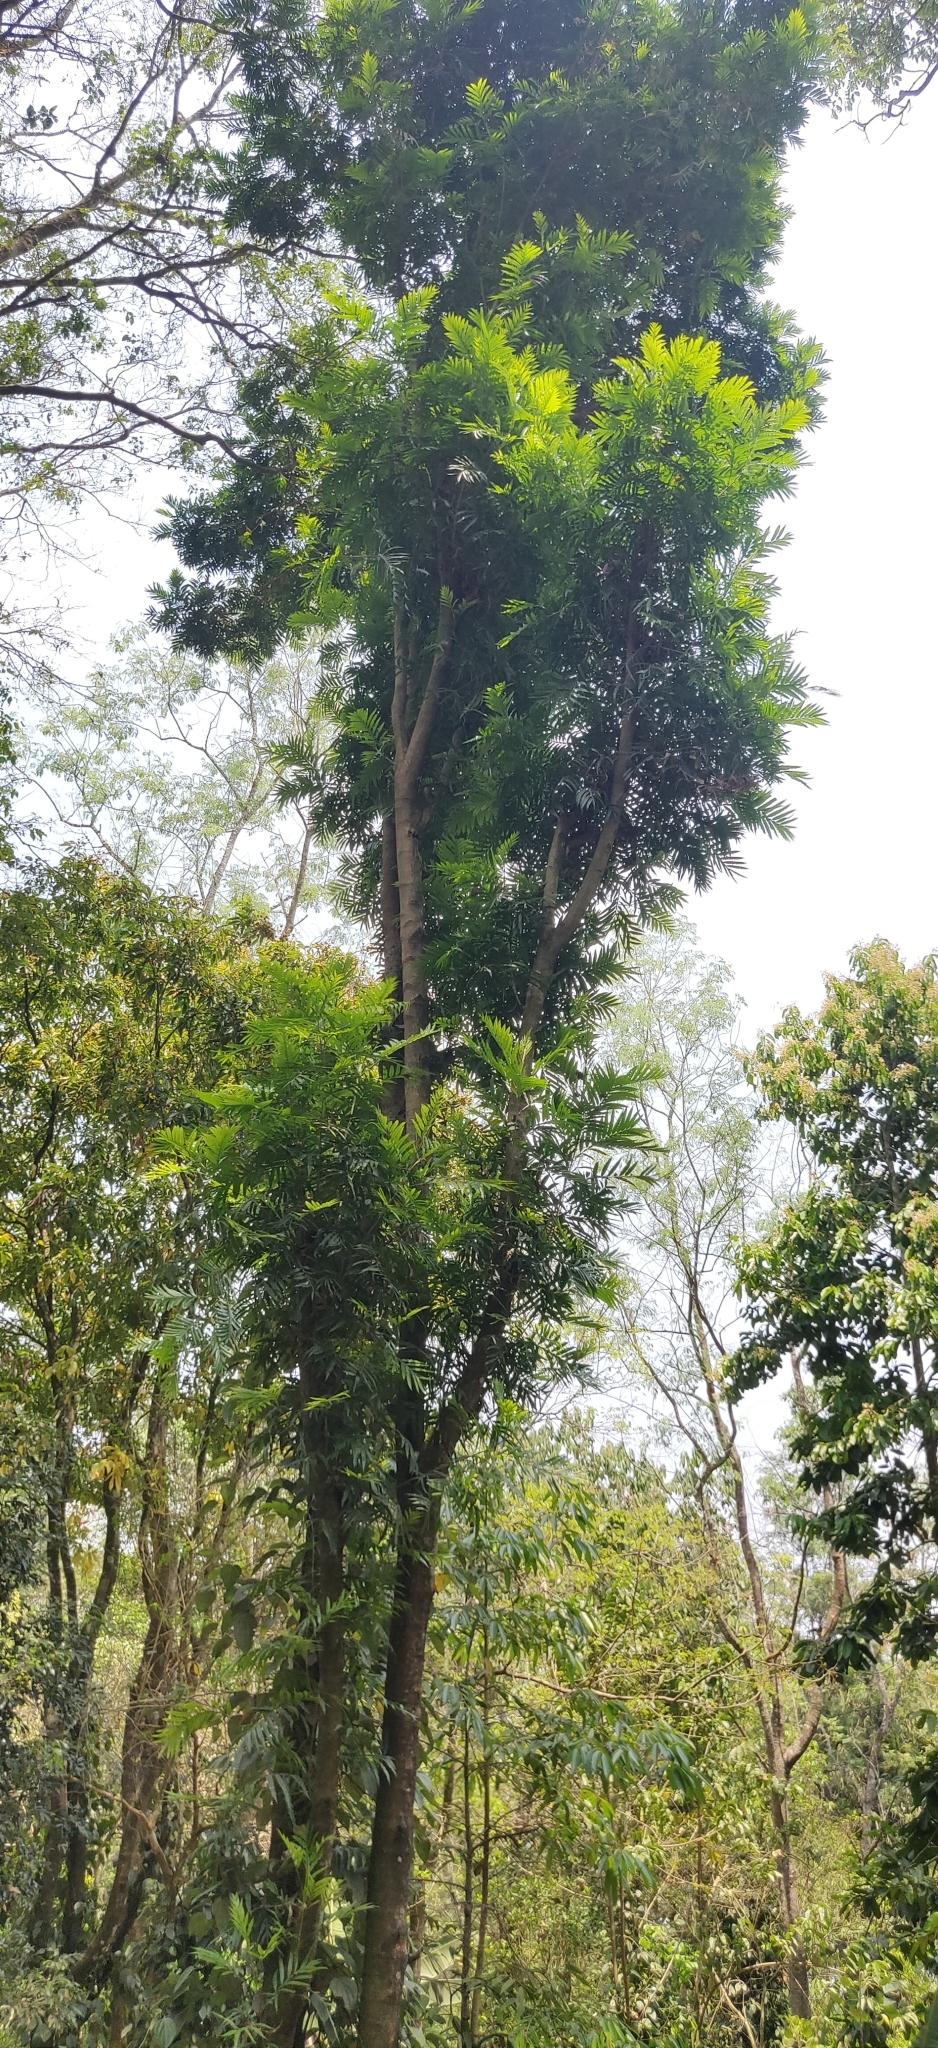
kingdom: Plantae
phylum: Tracheophyta
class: Magnoliopsida
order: Sapindales
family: Sapindaceae
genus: Filicium
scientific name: Filicium decipiens
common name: Ferntree
